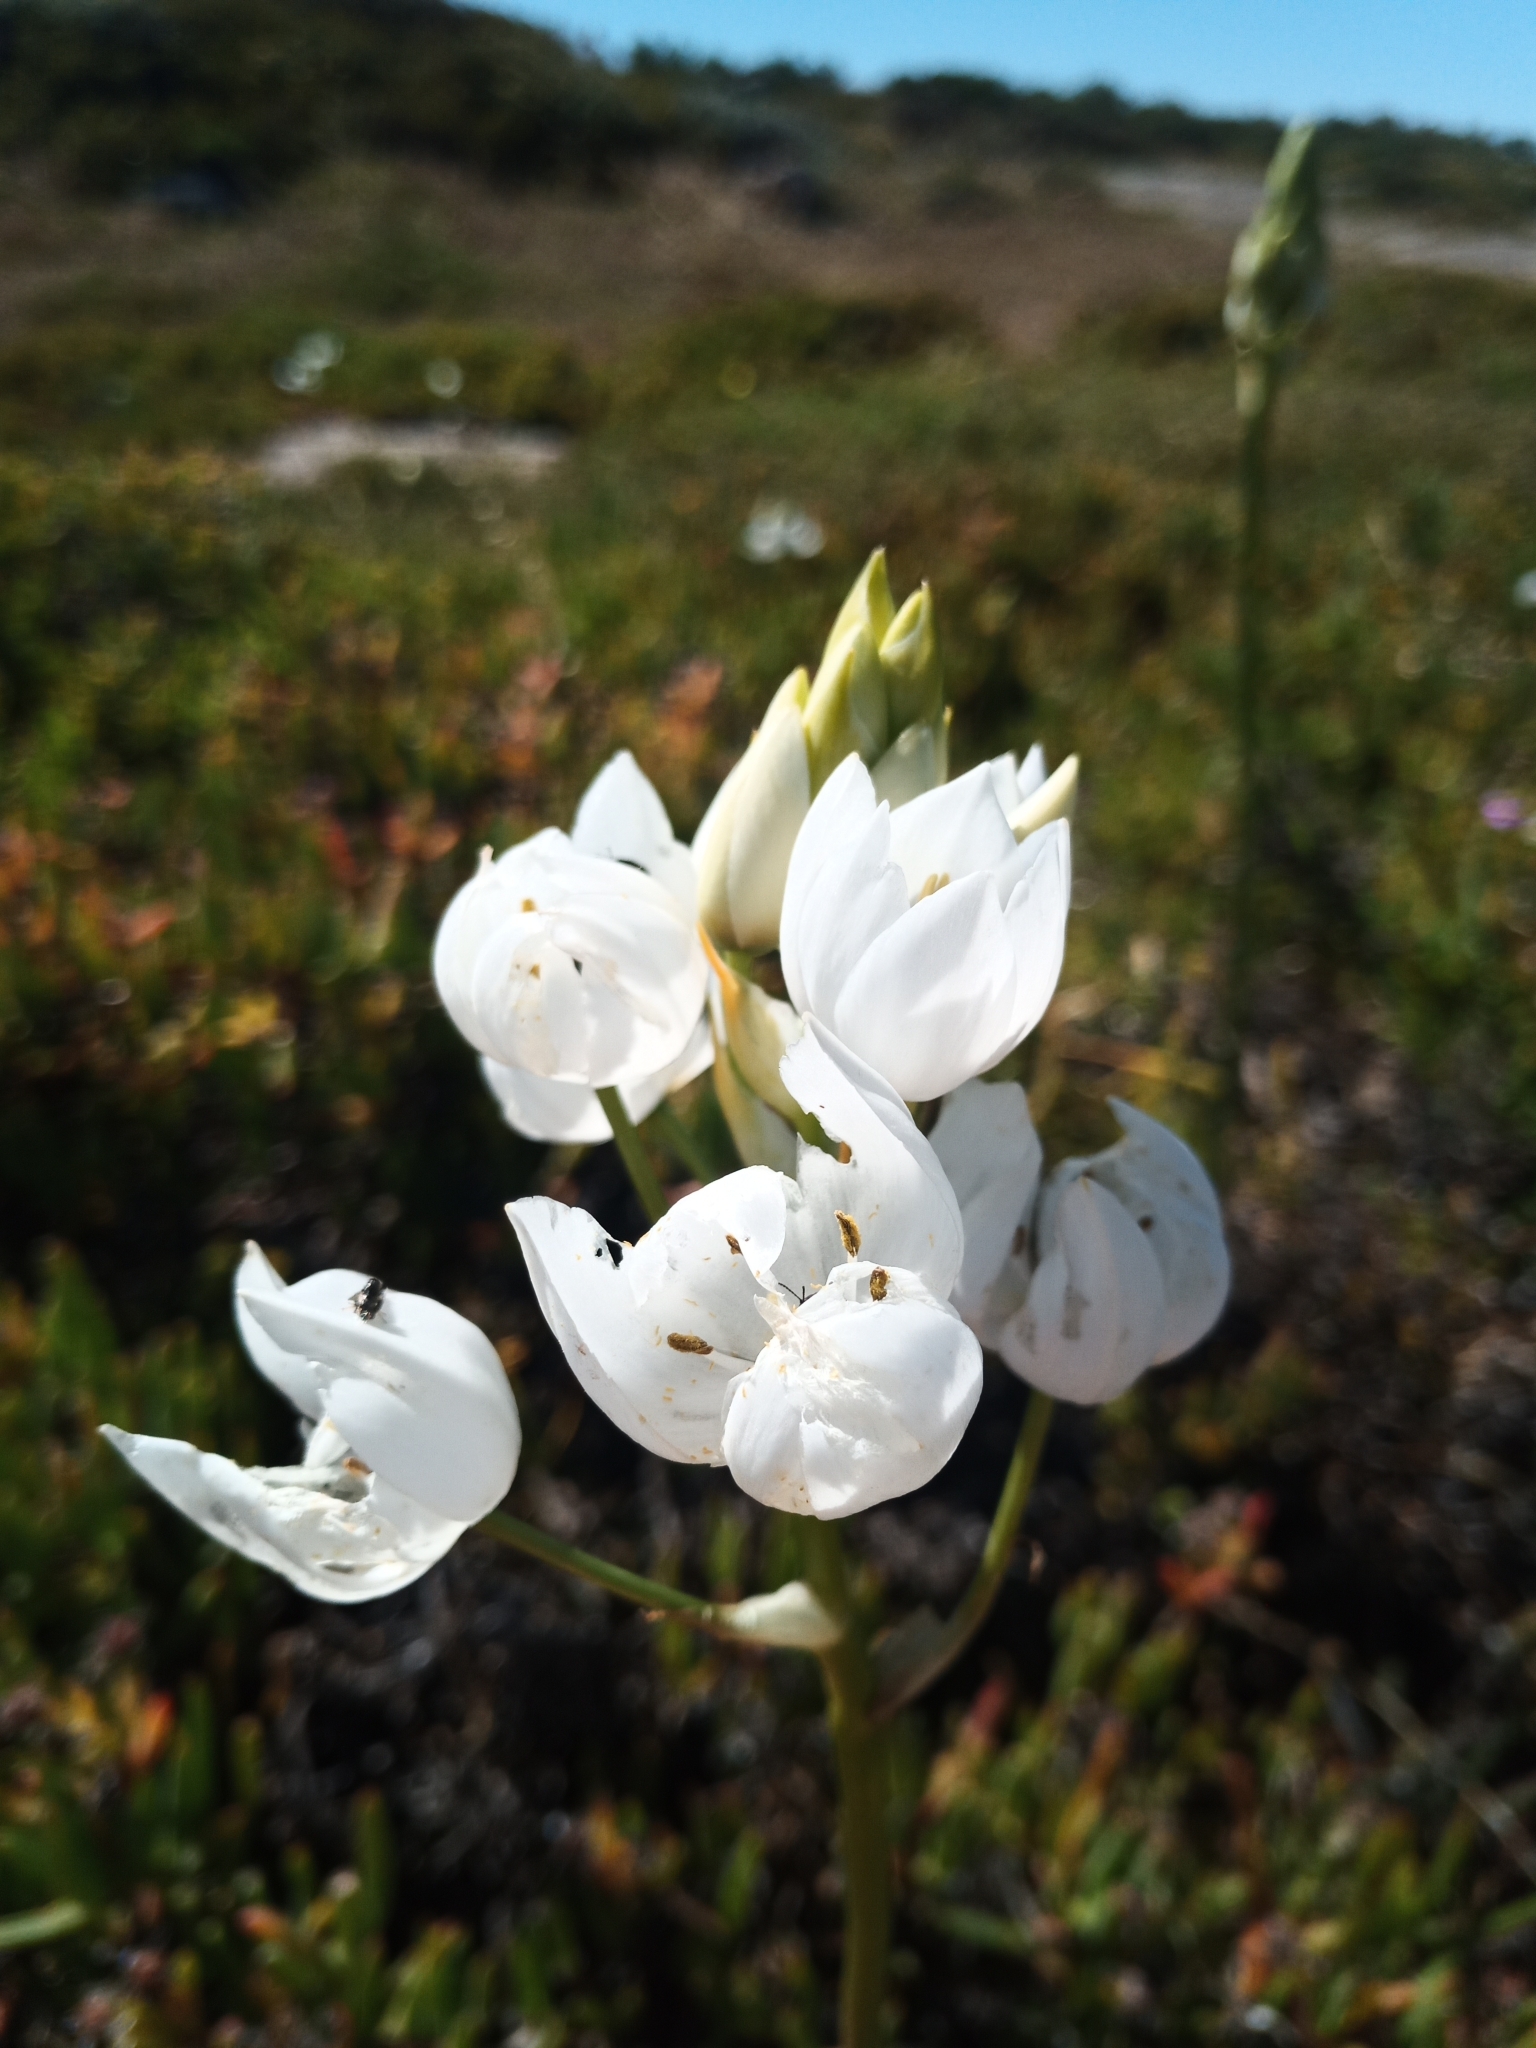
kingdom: Plantae
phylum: Tracheophyta
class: Liliopsida
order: Asparagales
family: Asparagaceae
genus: Ornithogalum
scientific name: Ornithogalum thyrsoides
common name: Chincherinchee
